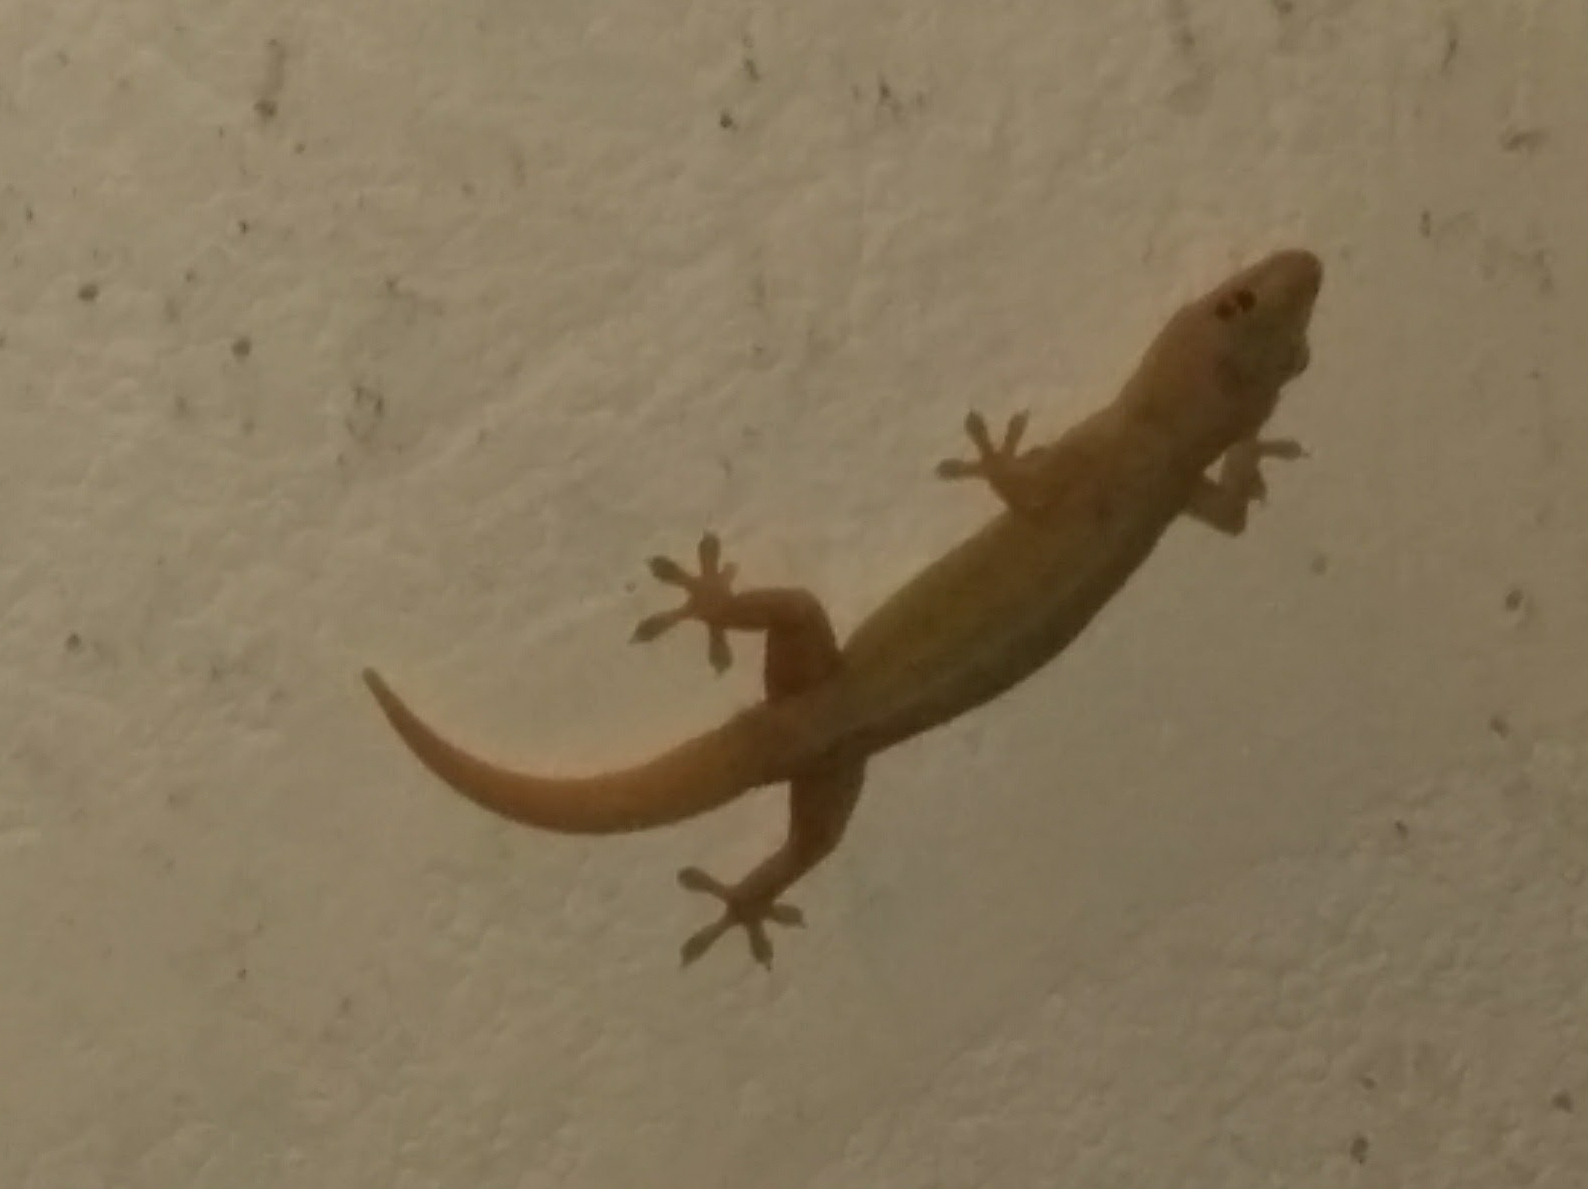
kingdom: Animalia
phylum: Chordata
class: Squamata
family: Gekkonidae
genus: Hemidactylus
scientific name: Hemidactylus frenatus
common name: Common house gecko
